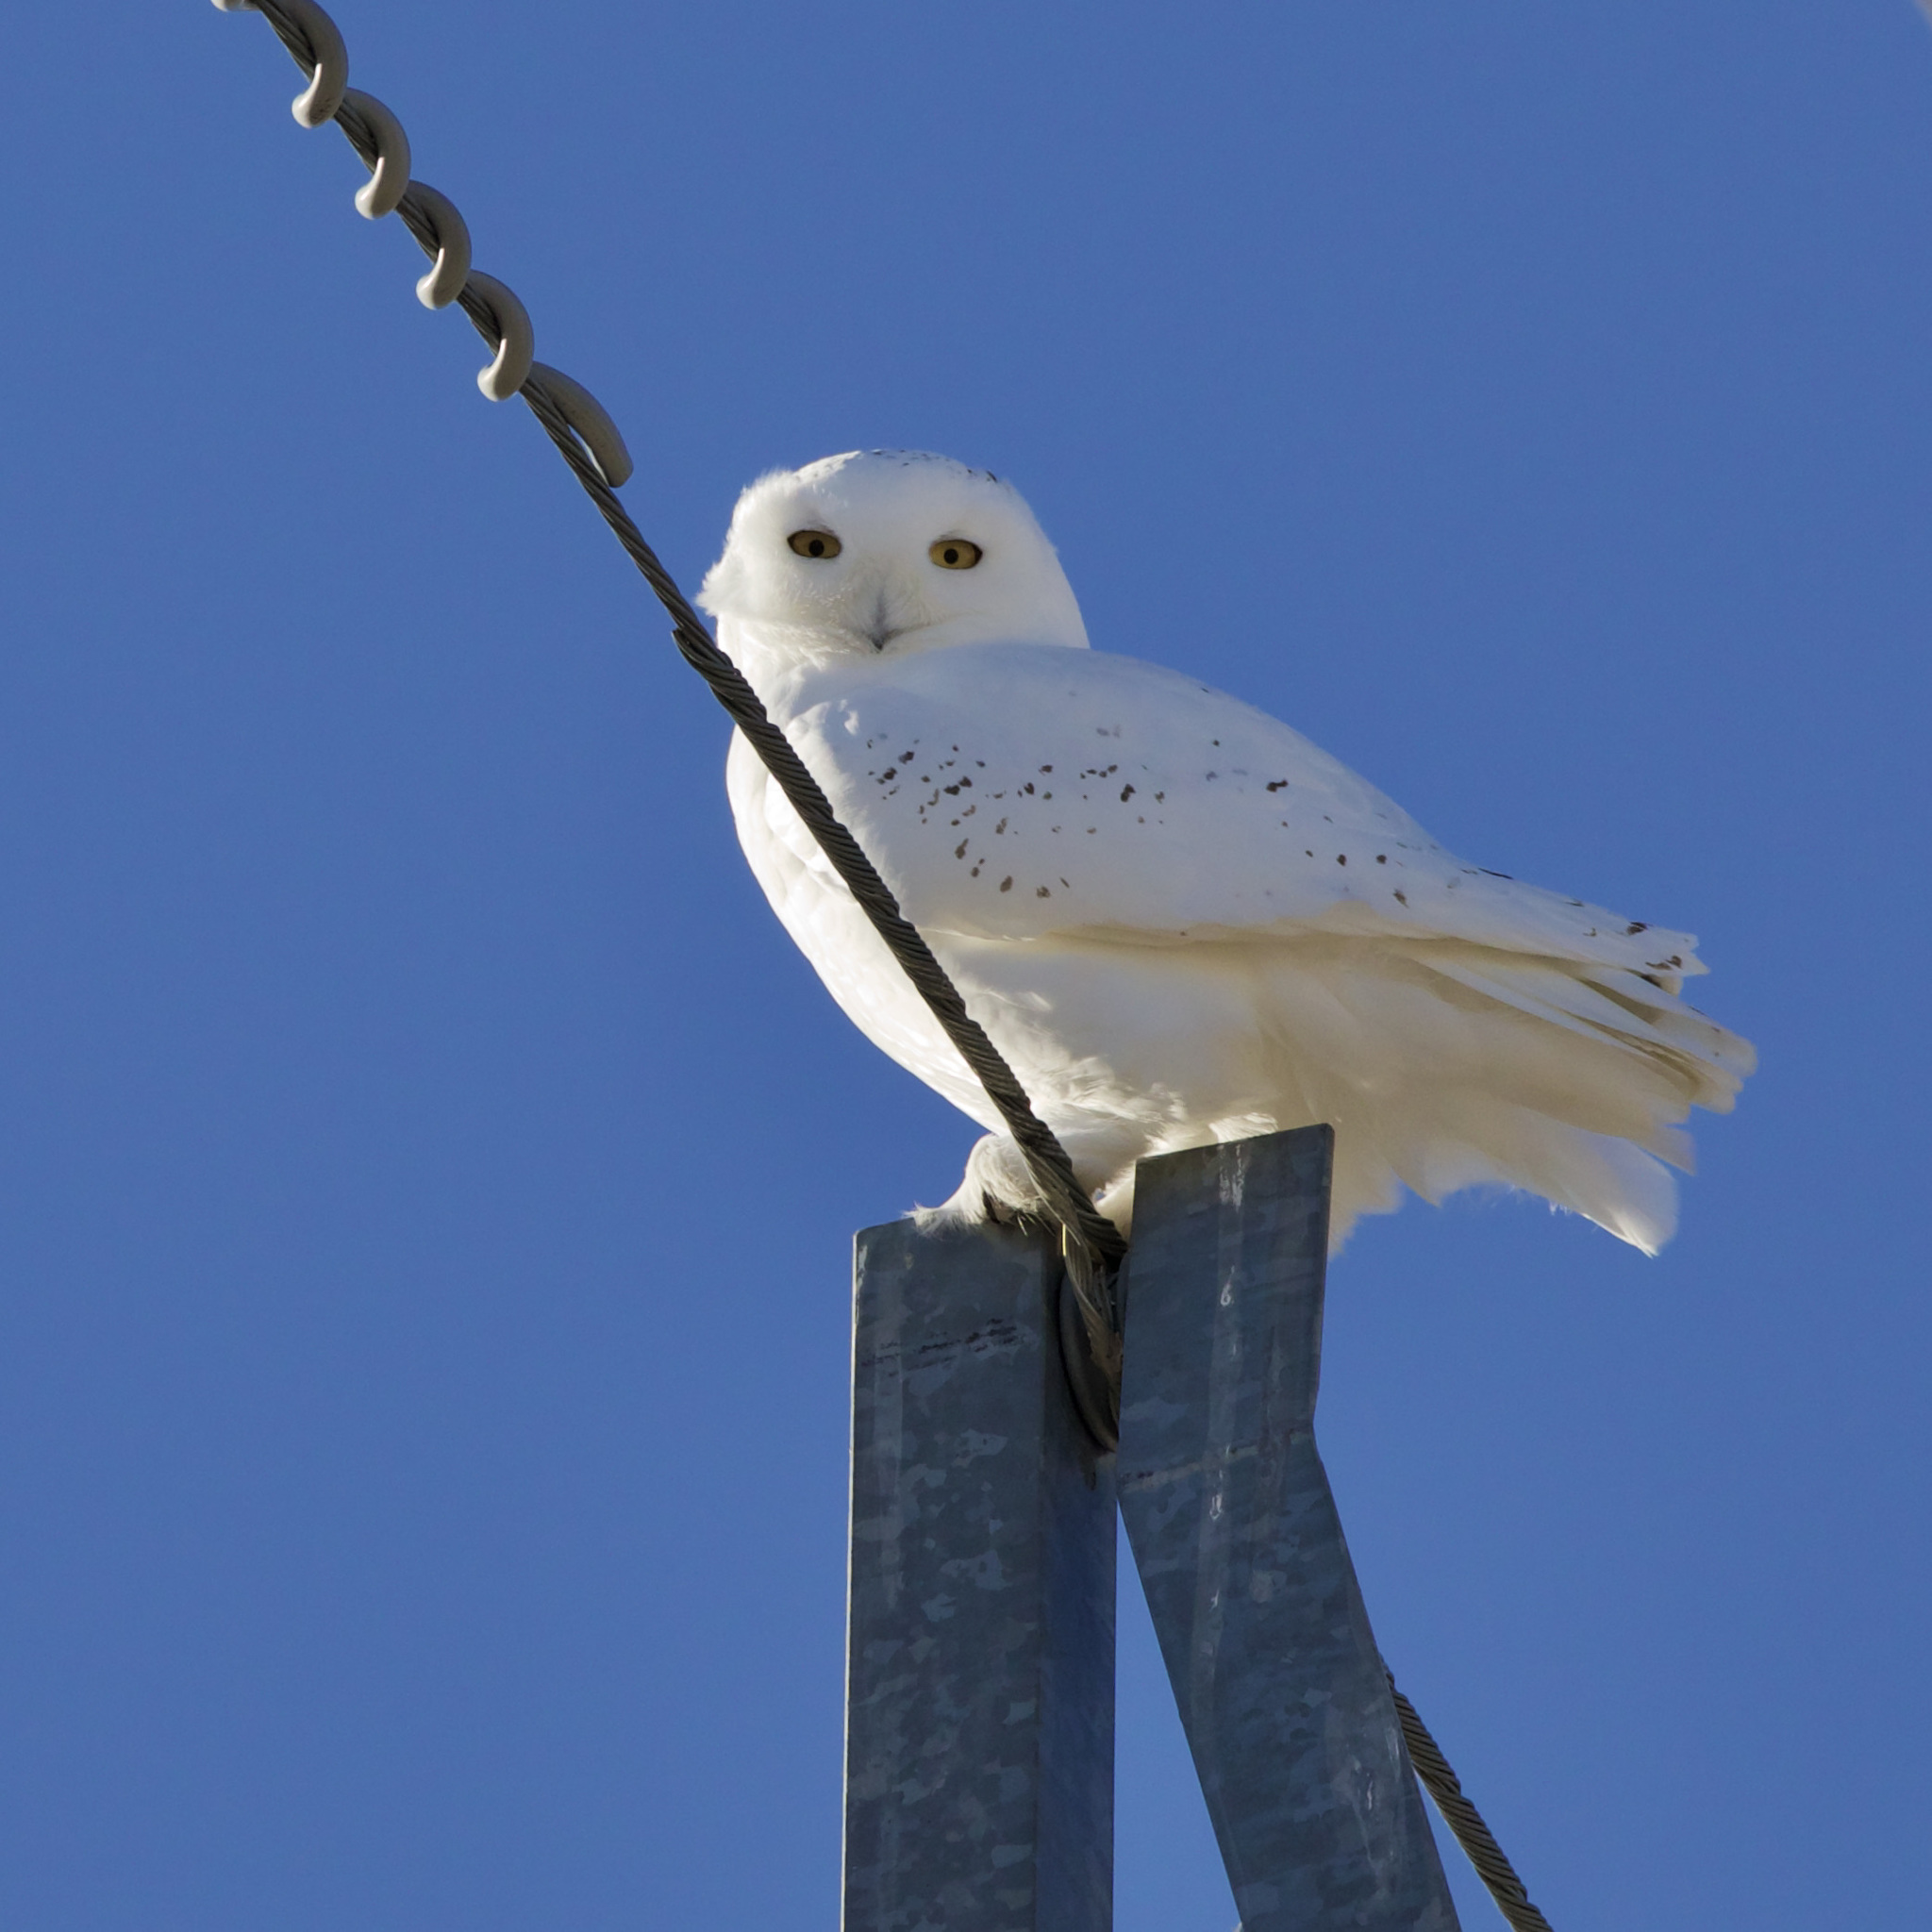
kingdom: Animalia
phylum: Chordata
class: Aves
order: Strigiformes
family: Strigidae
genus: Bubo
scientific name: Bubo scandiacus
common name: Snowy owl
